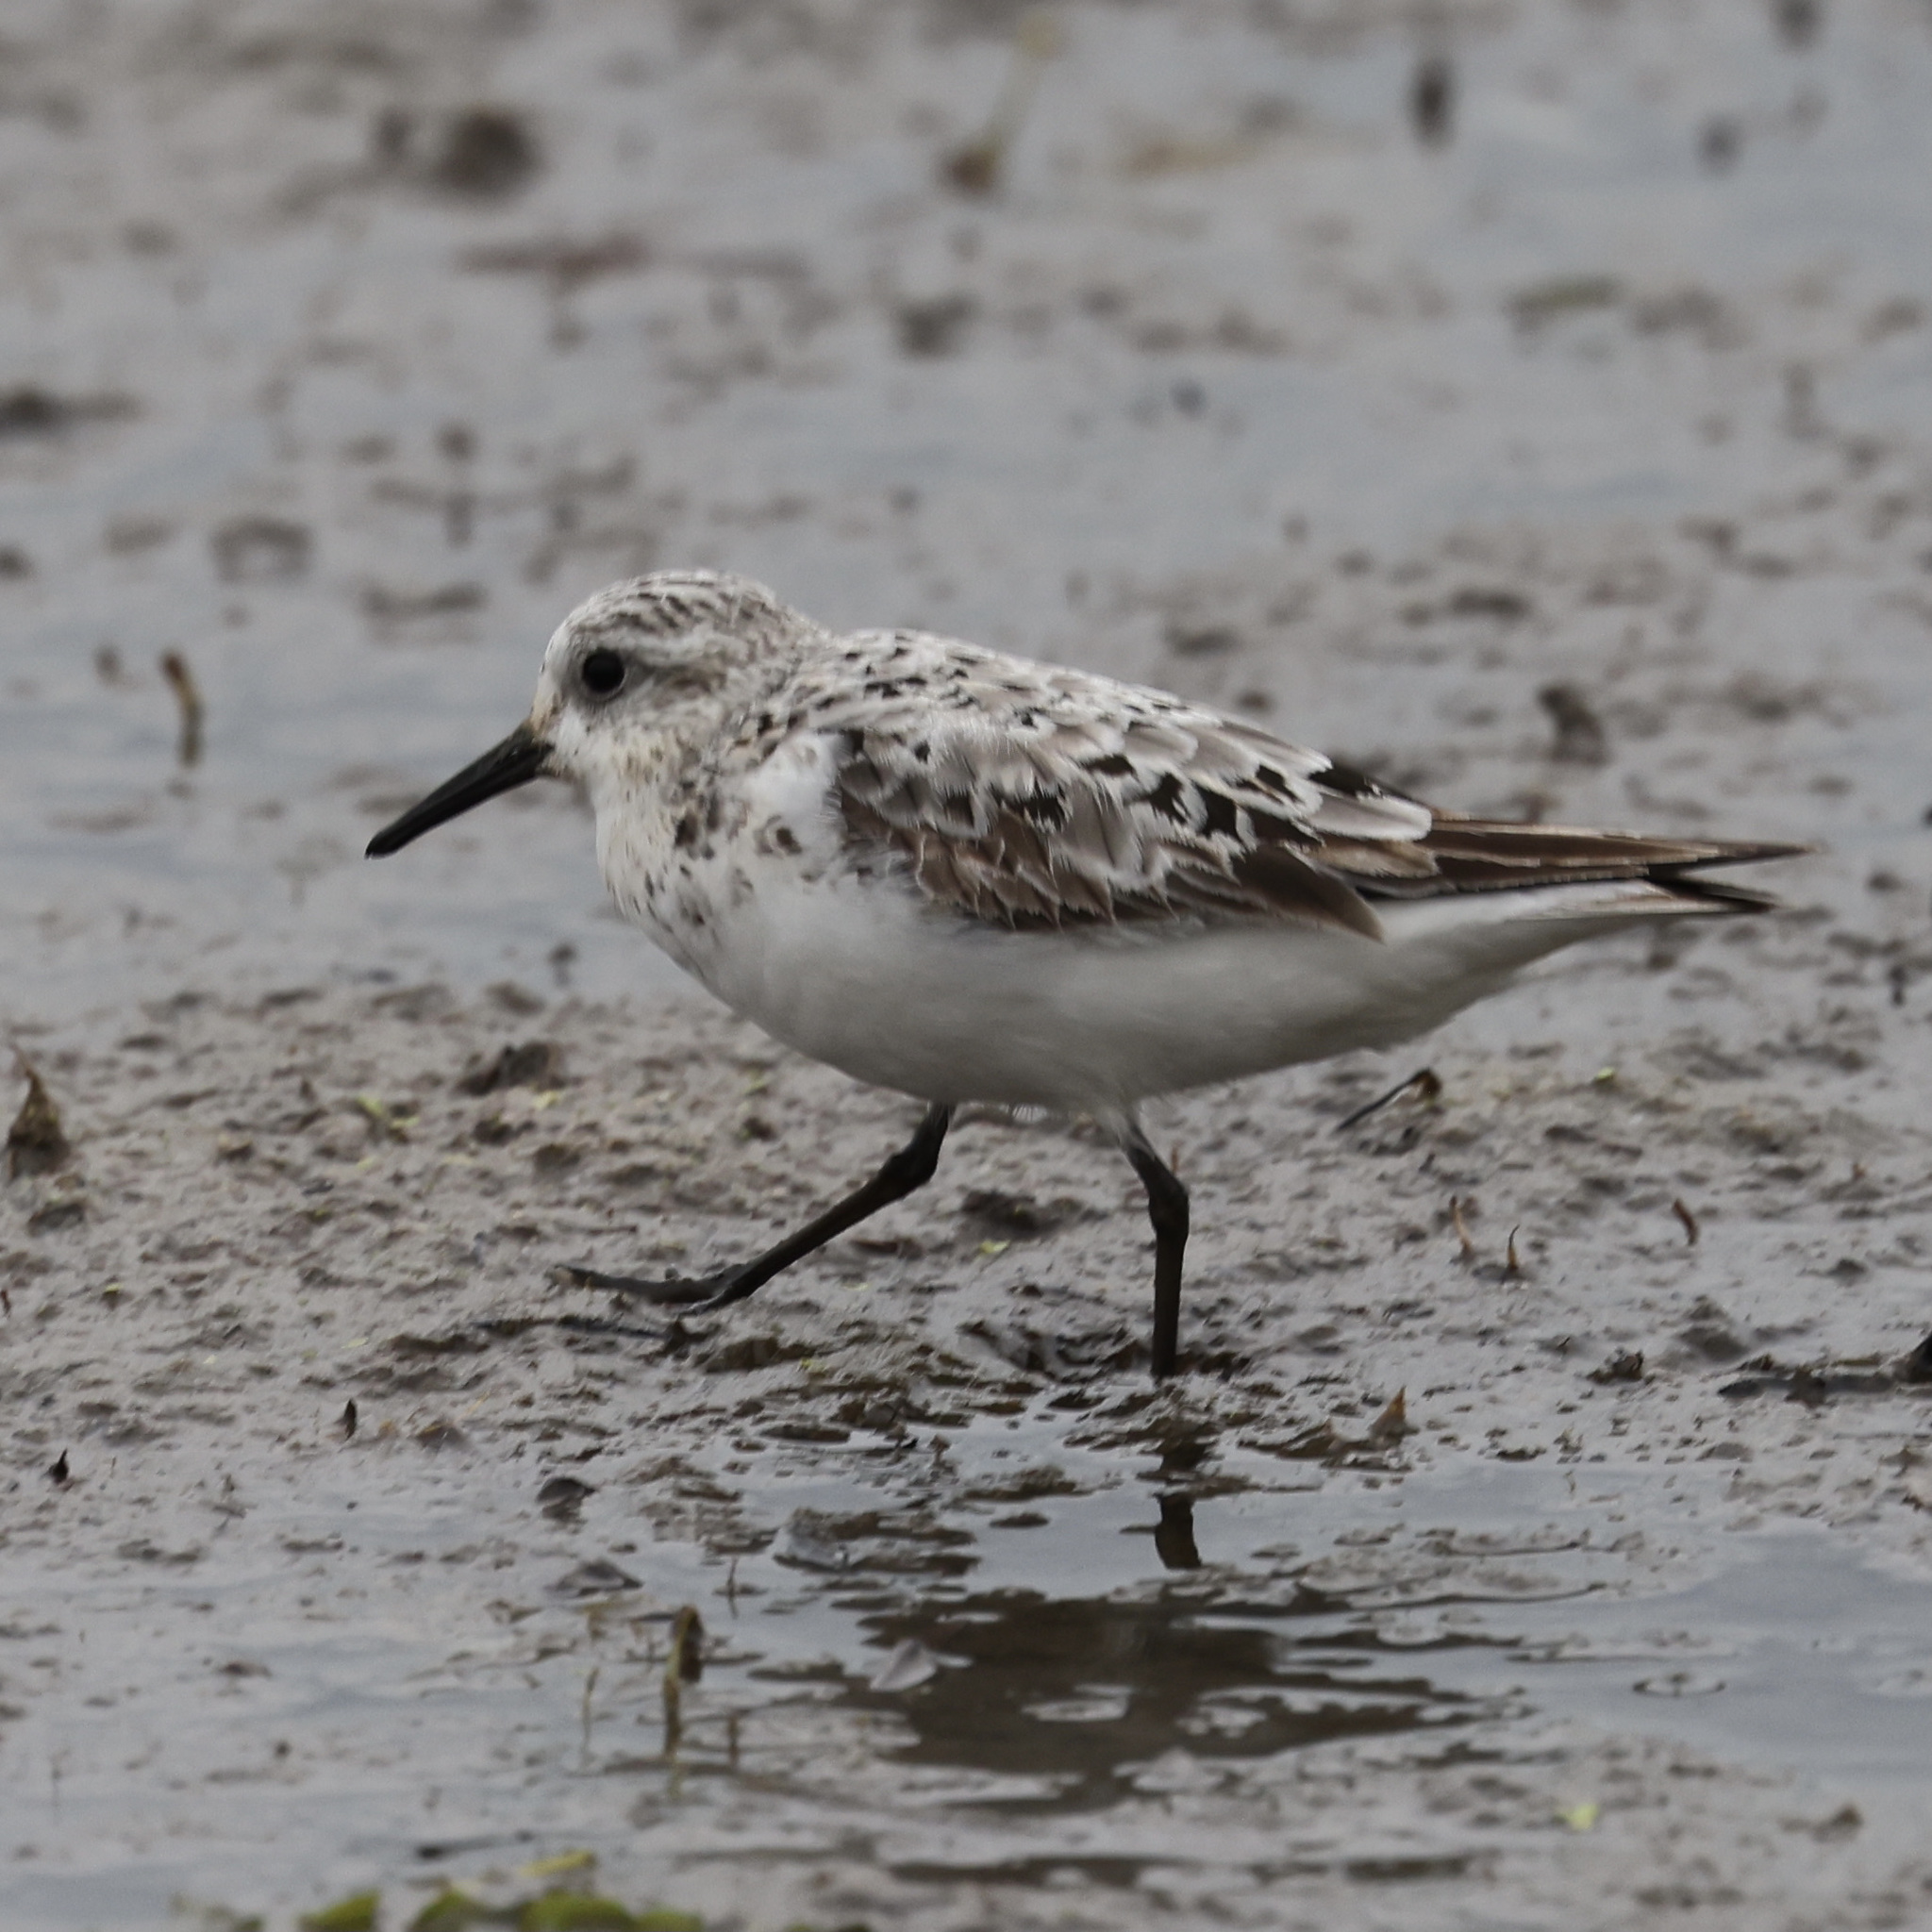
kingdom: Animalia
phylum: Chordata
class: Aves
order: Charadriiformes
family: Scolopacidae
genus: Calidris
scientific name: Calidris alba
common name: Sanderling
